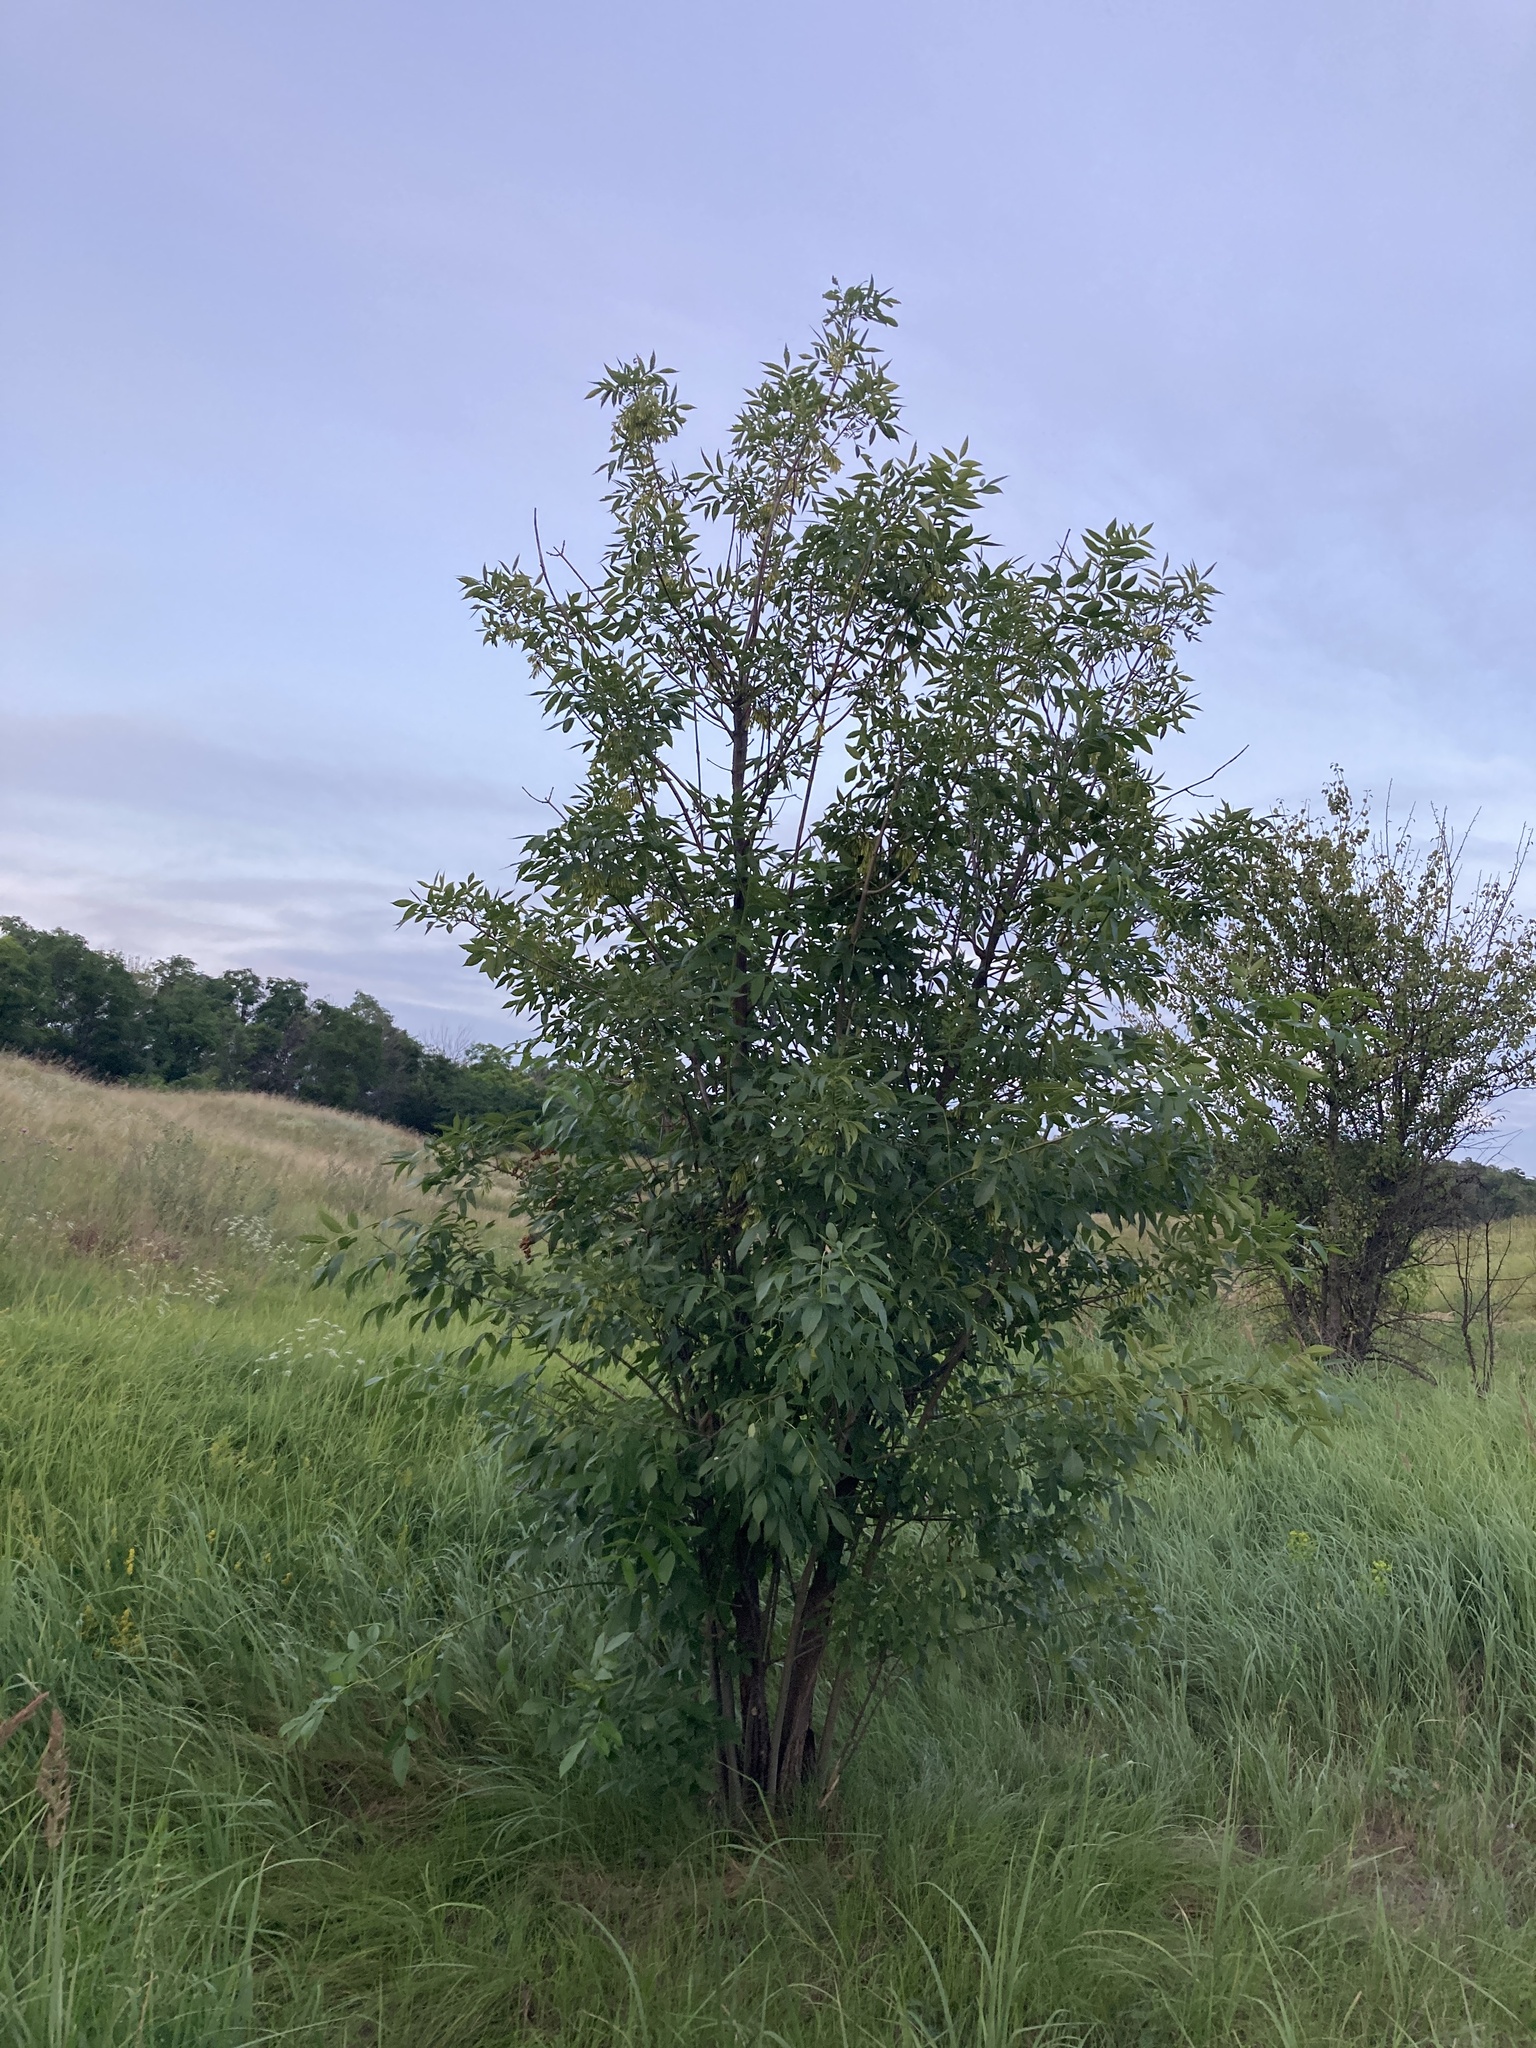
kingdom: Plantae
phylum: Tracheophyta
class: Magnoliopsida
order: Lamiales
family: Oleaceae
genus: Fraxinus
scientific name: Fraxinus pennsylvanica
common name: Green ash
